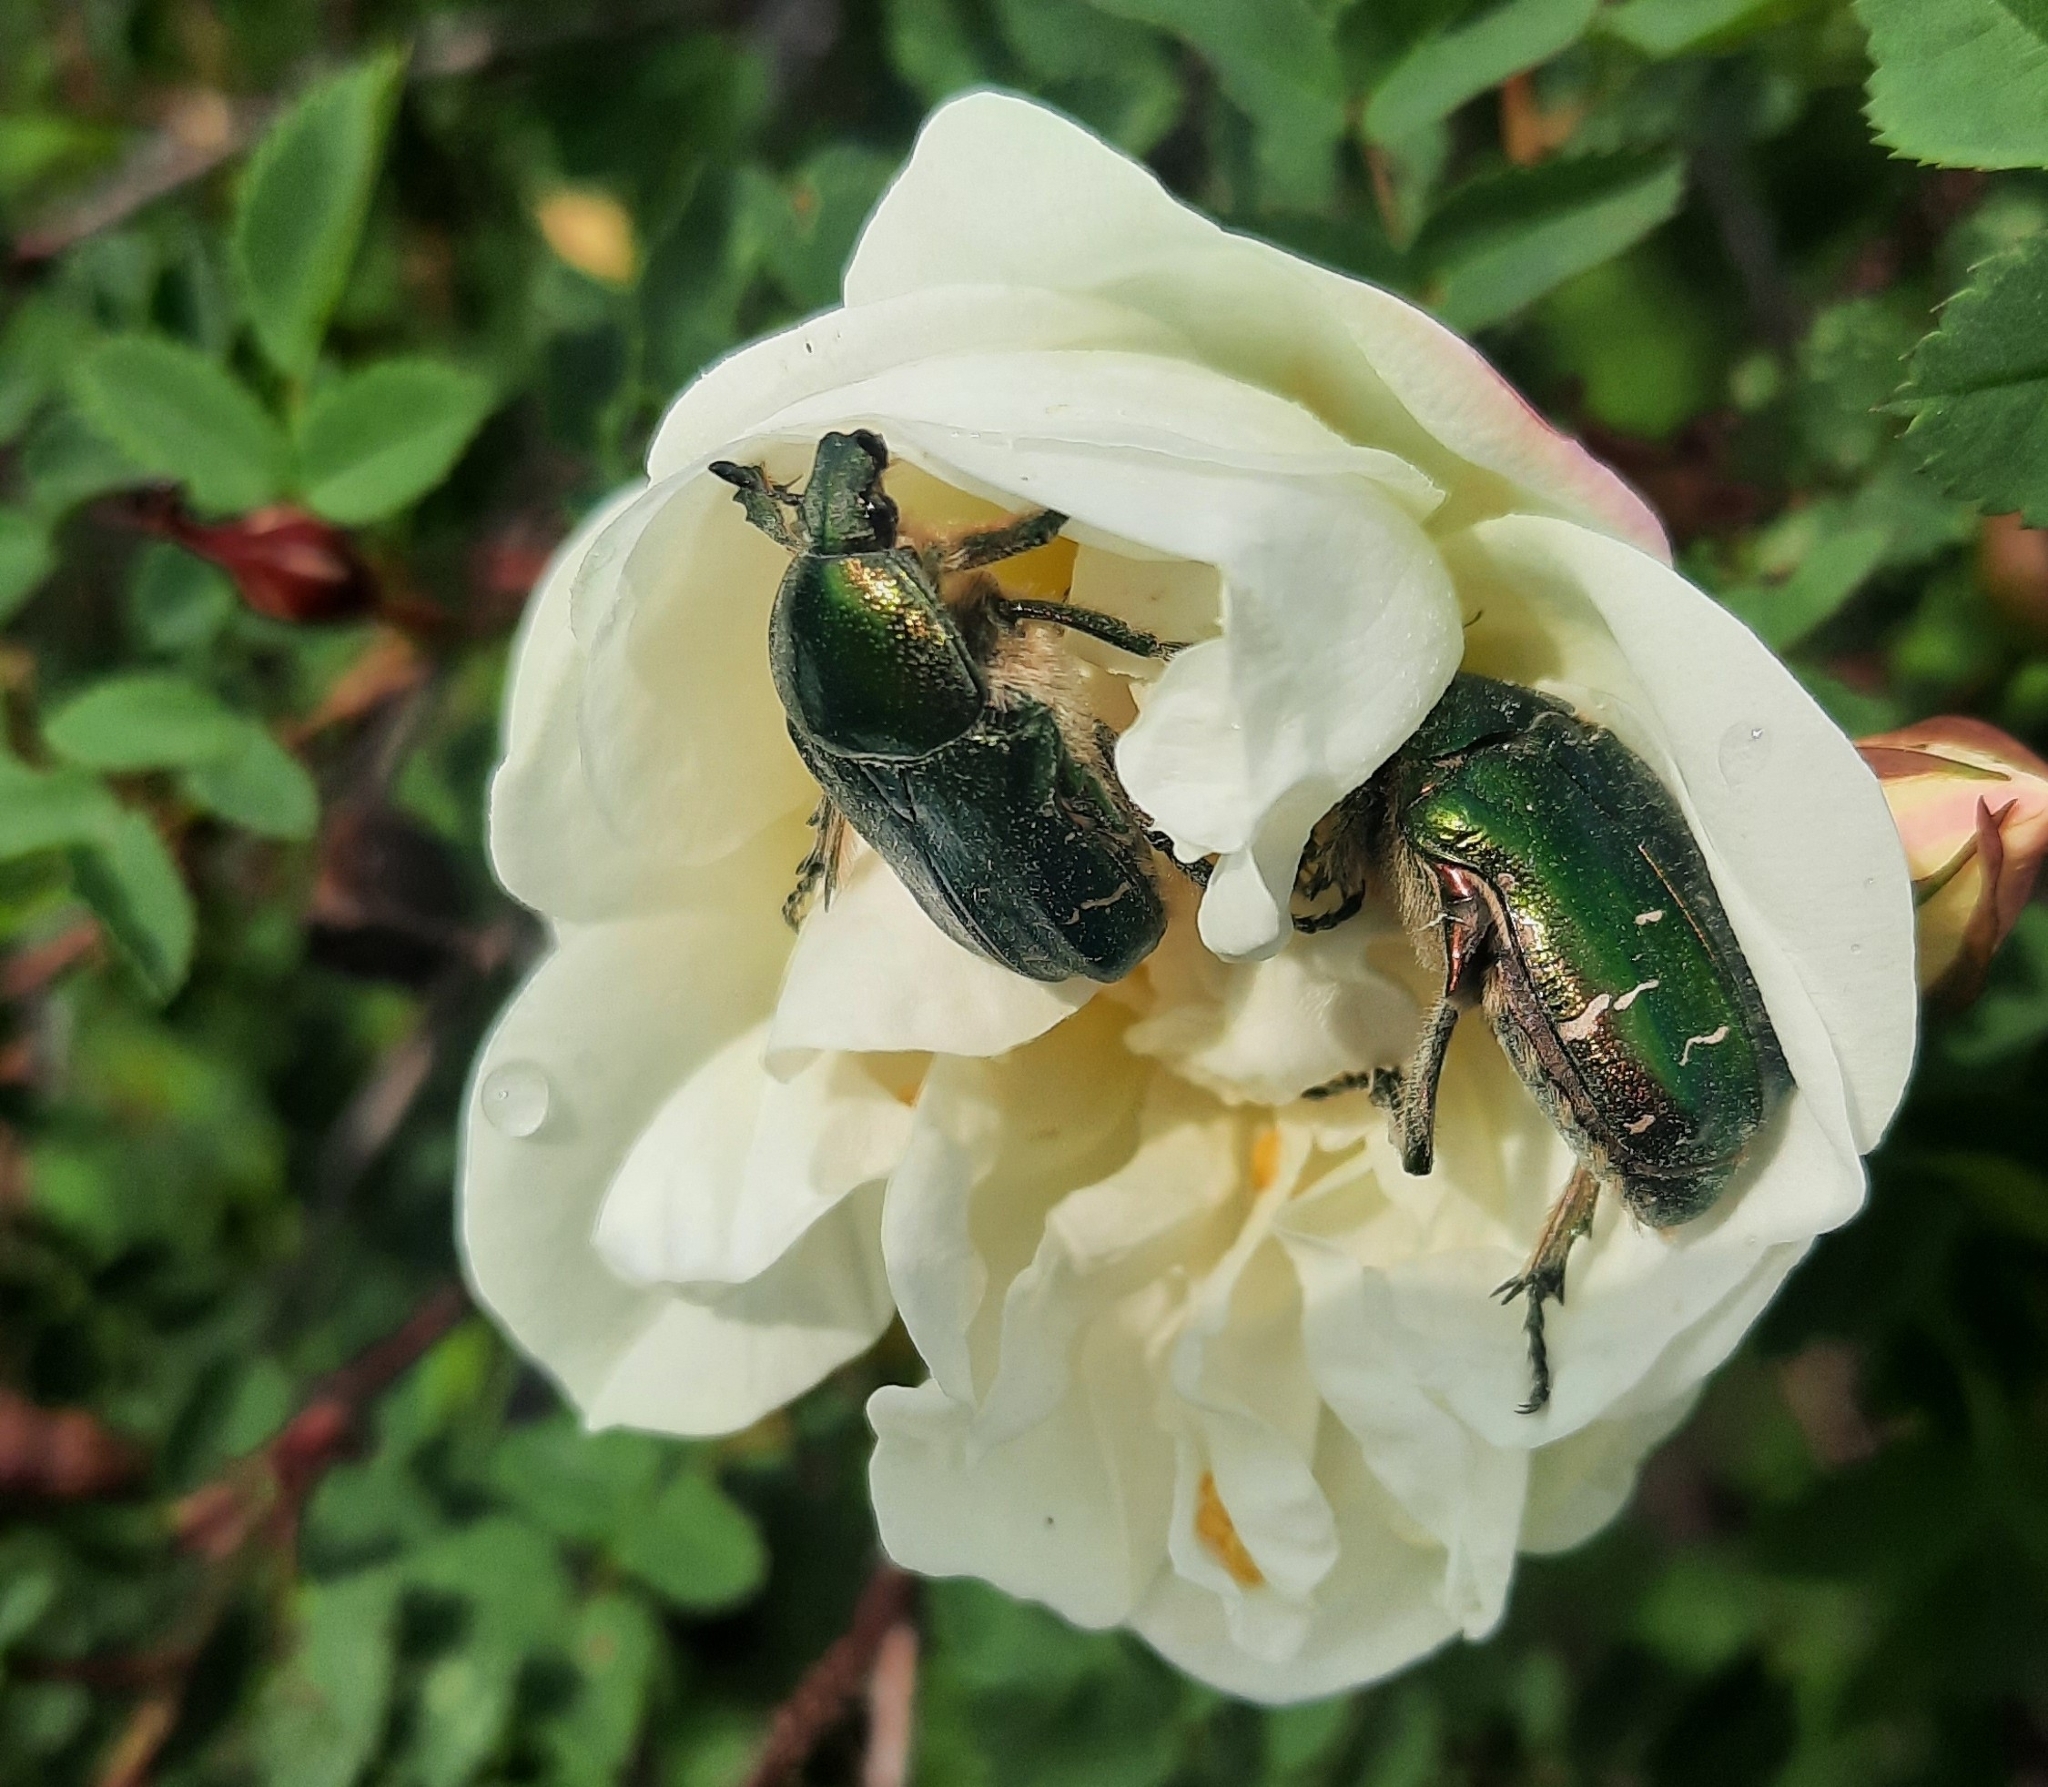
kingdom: Animalia
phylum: Arthropoda
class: Insecta
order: Coleoptera
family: Scarabaeidae
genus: Cetonia
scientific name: Cetonia aurata
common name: Rose chafer
